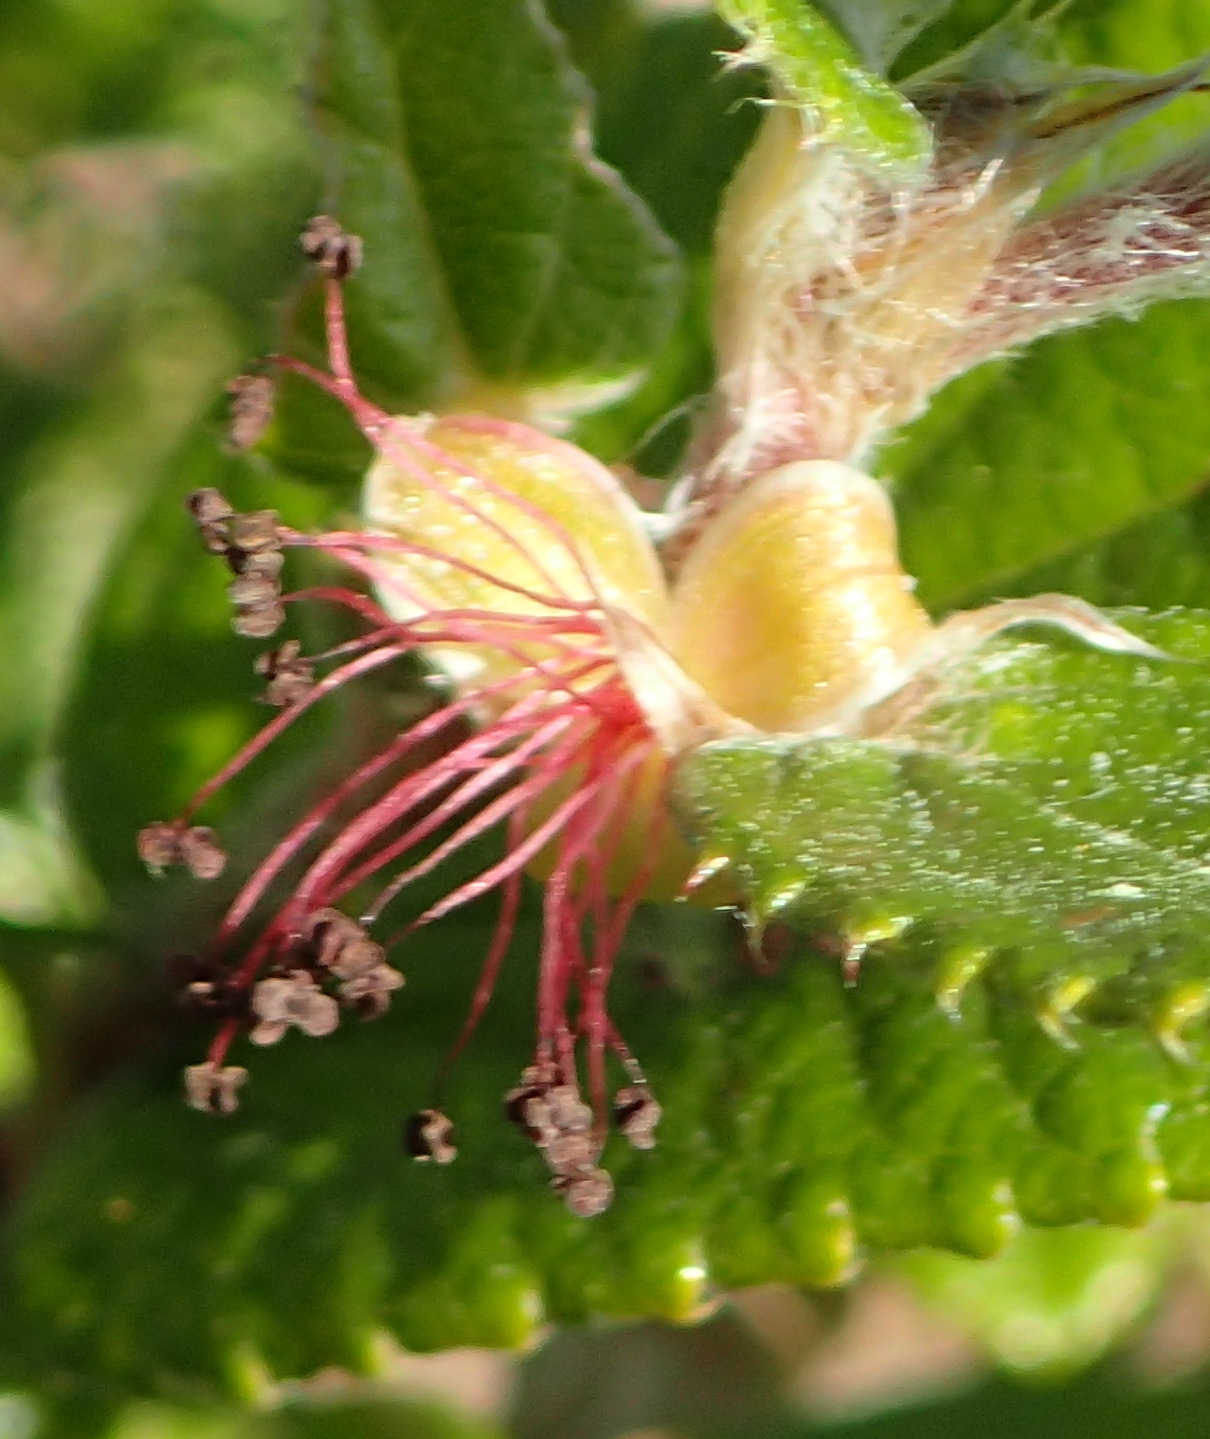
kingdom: Plantae
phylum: Tracheophyta
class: Magnoliopsida
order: Rosales
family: Rosaceae
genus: Cliffortia
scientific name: Cliffortia odorata
